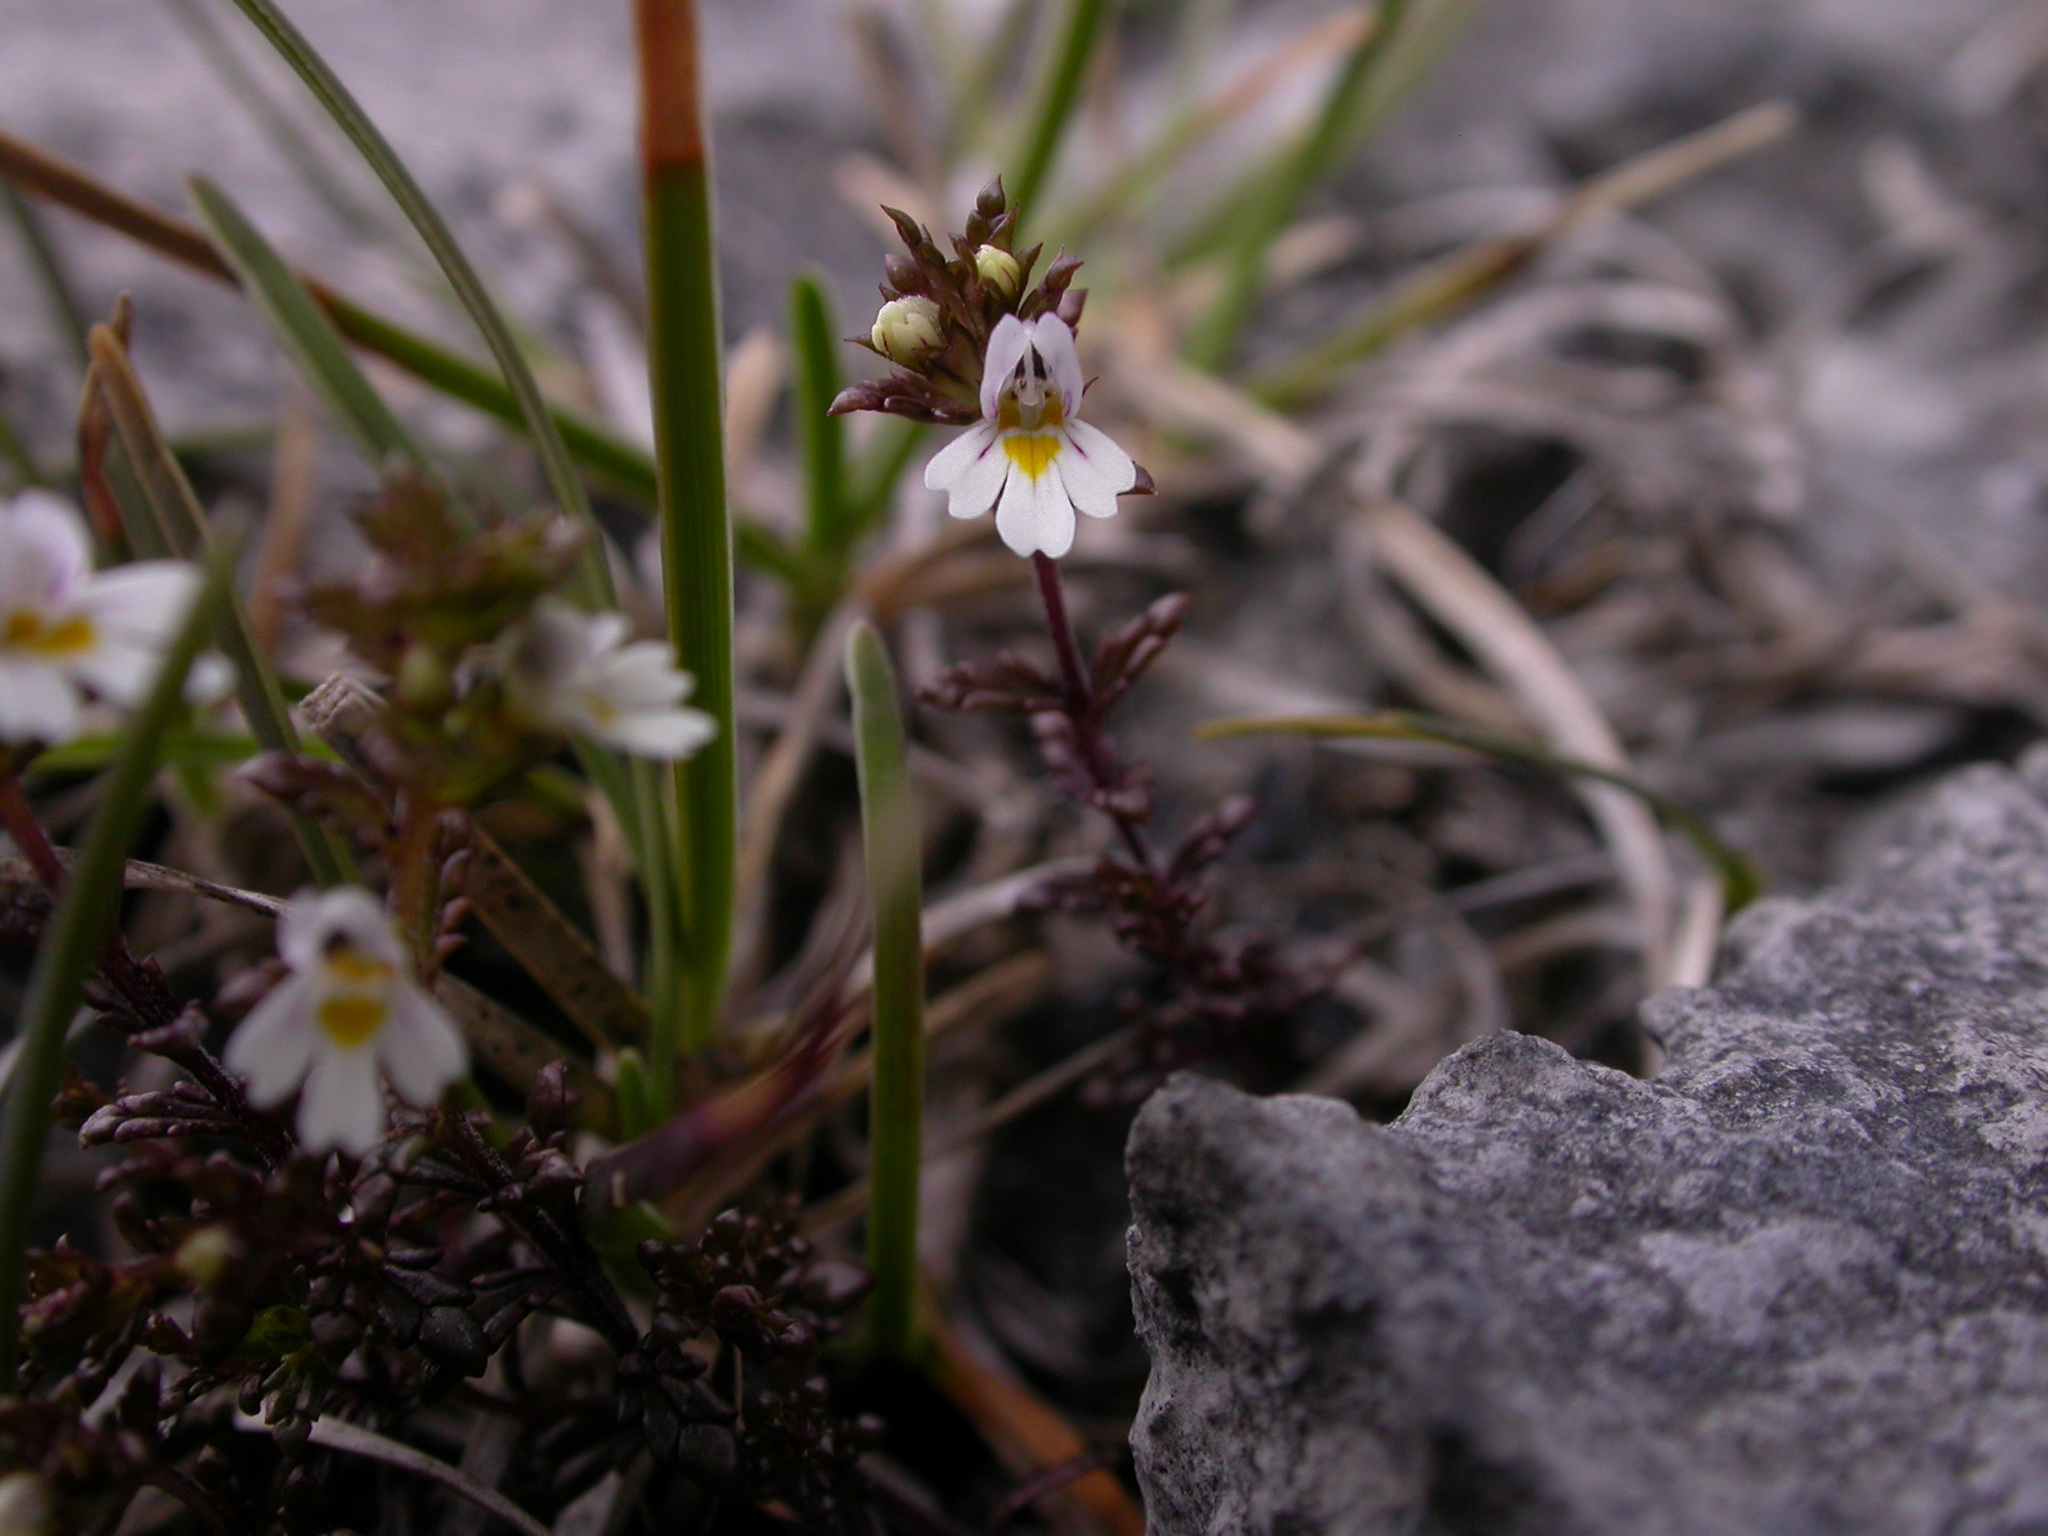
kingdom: Plantae
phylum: Tracheophyta
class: Magnoliopsida
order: Lamiales
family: Orobanchaceae
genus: Euphrasia
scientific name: Euphrasia salisburgensis
